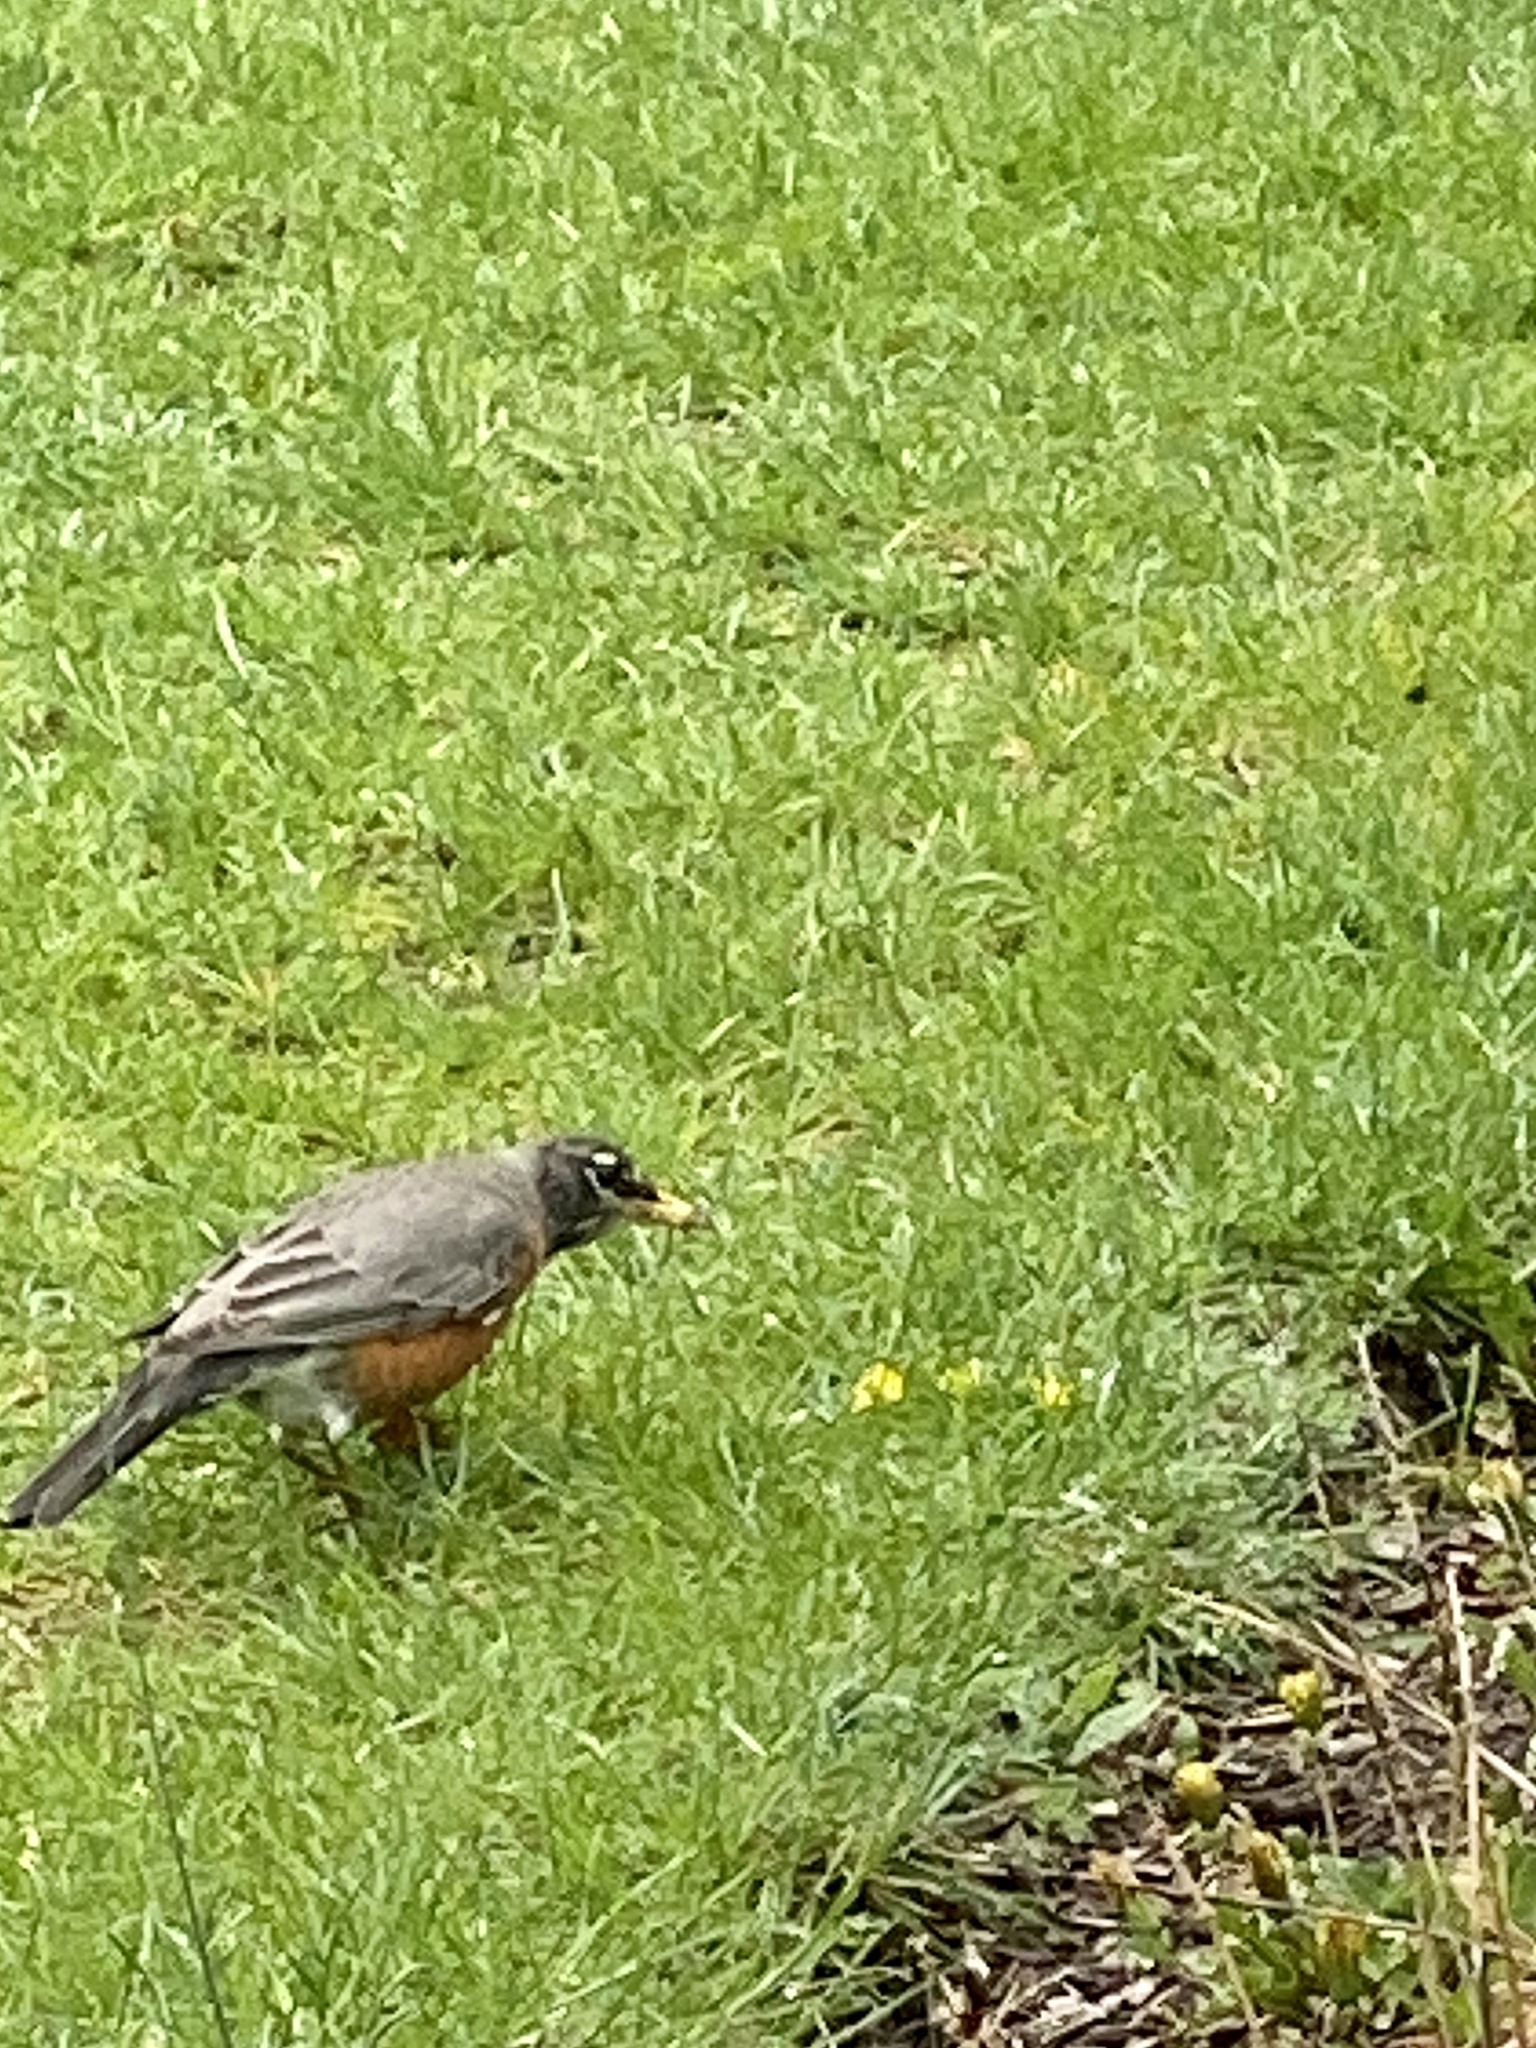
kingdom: Animalia
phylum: Chordata
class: Aves
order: Passeriformes
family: Turdidae
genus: Turdus
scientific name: Turdus migratorius
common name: American robin
